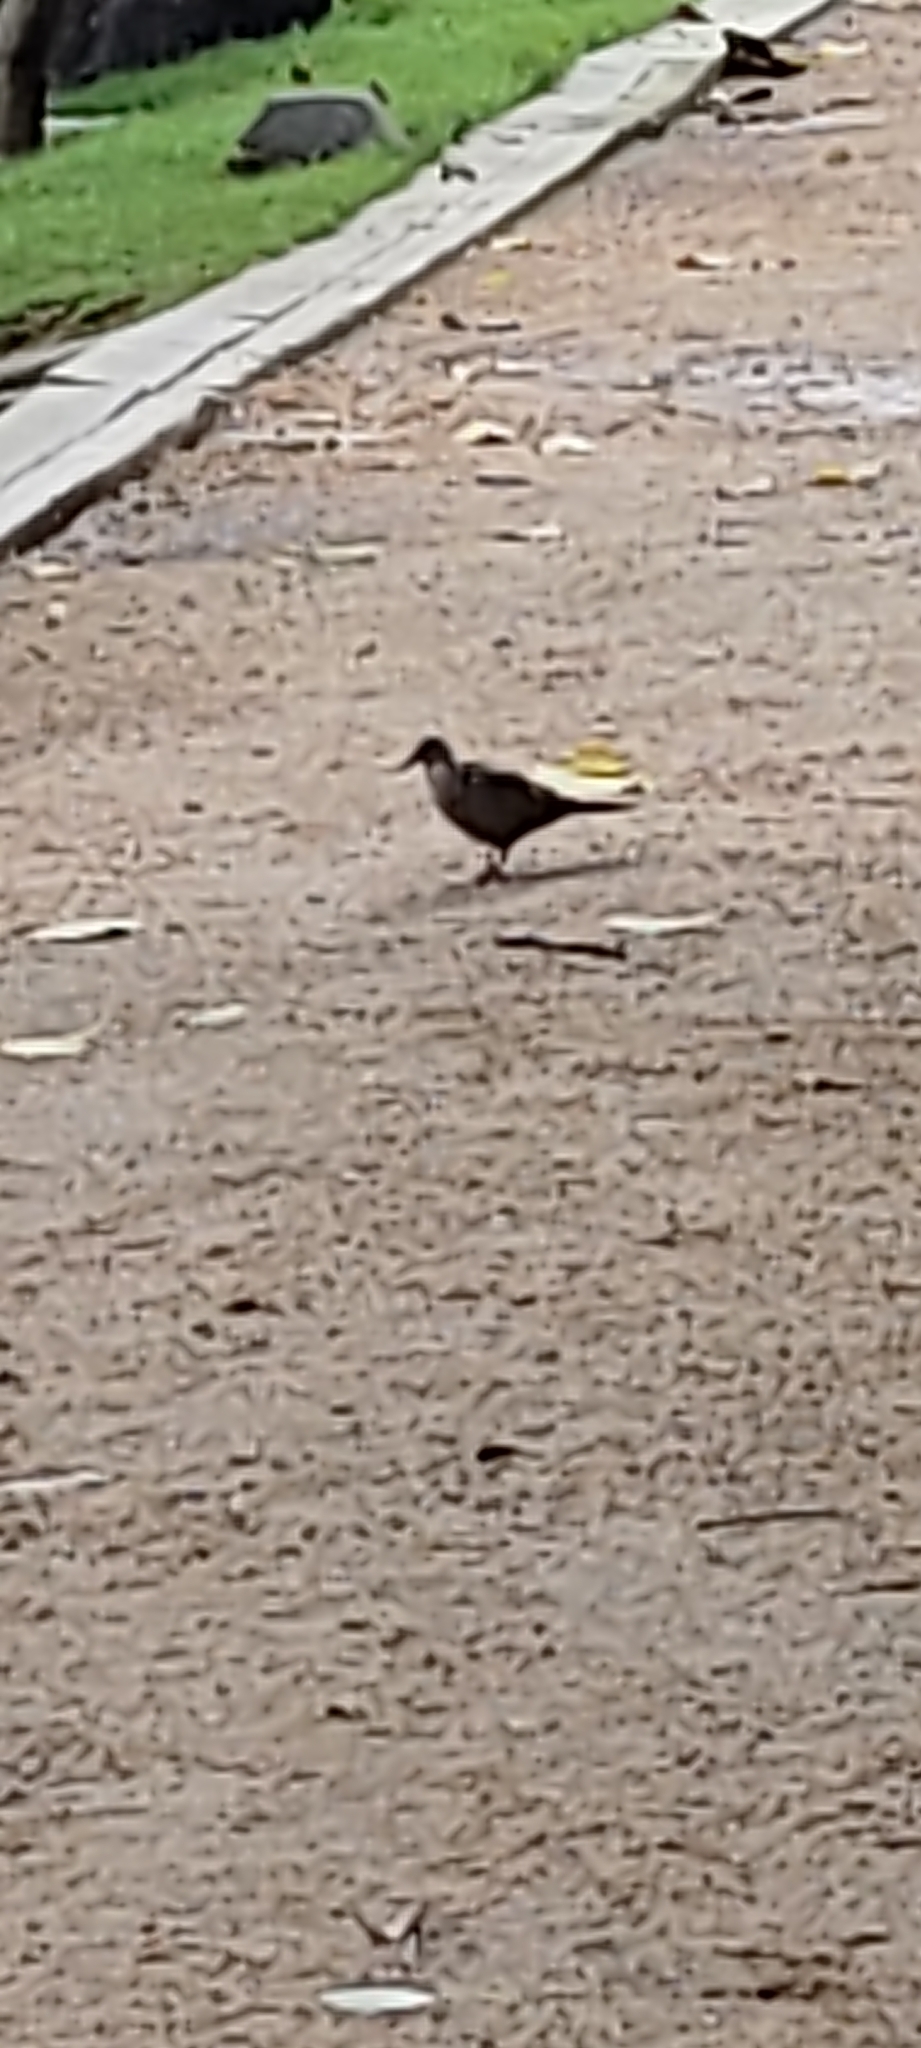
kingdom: Animalia
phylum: Chordata
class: Aves
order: Columbiformes
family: Columbidae
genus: Spilopelia
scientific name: Spilopelia senegalensis
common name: Laughing dove
